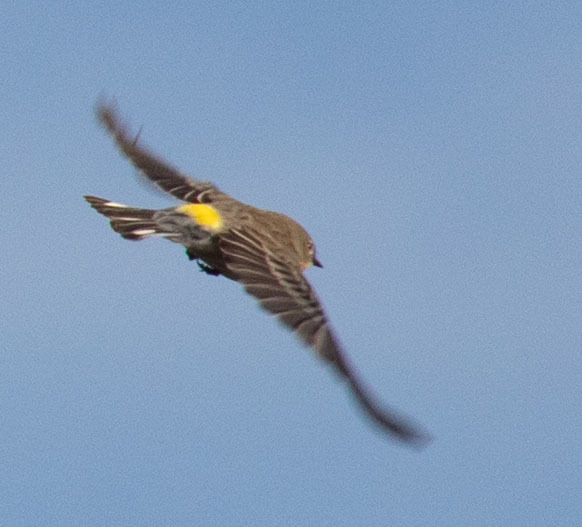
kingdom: Animalia
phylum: Chordata
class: Aves
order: Passeriformes
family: Parulidae
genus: Setophaga
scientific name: Setophaga coronata
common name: Myrtle warbler
